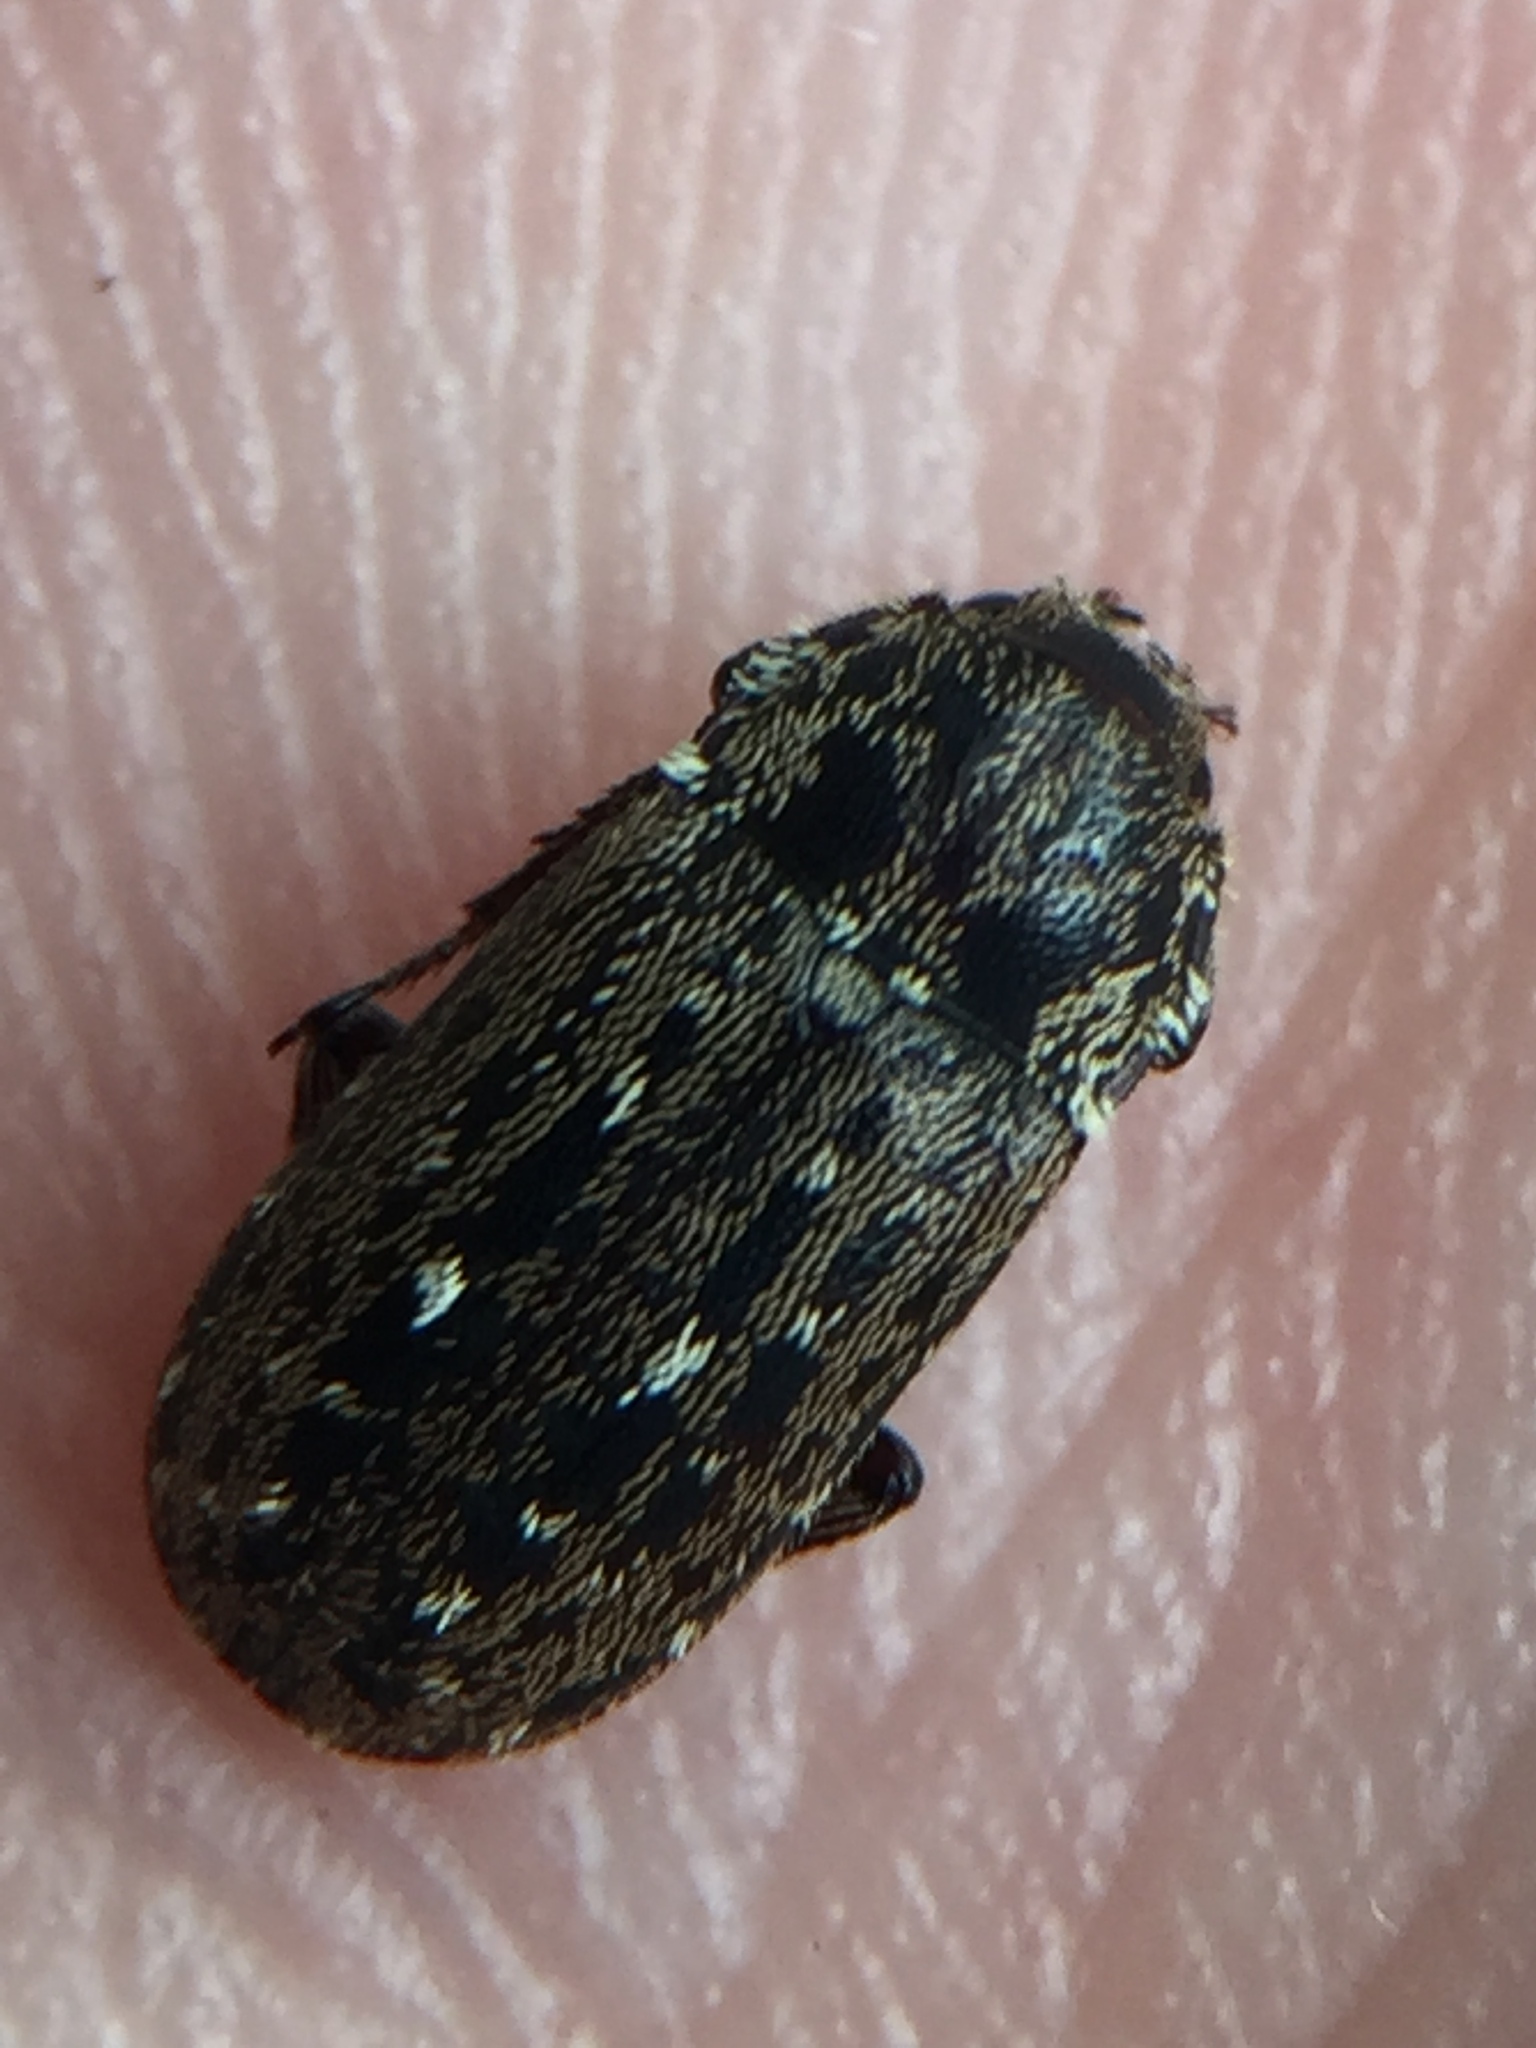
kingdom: Animalia
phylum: Arthropoda
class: Insecta
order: Coleoptera
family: Lucanidae
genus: Mitophyllus
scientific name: Mitophyllus arcuatus
